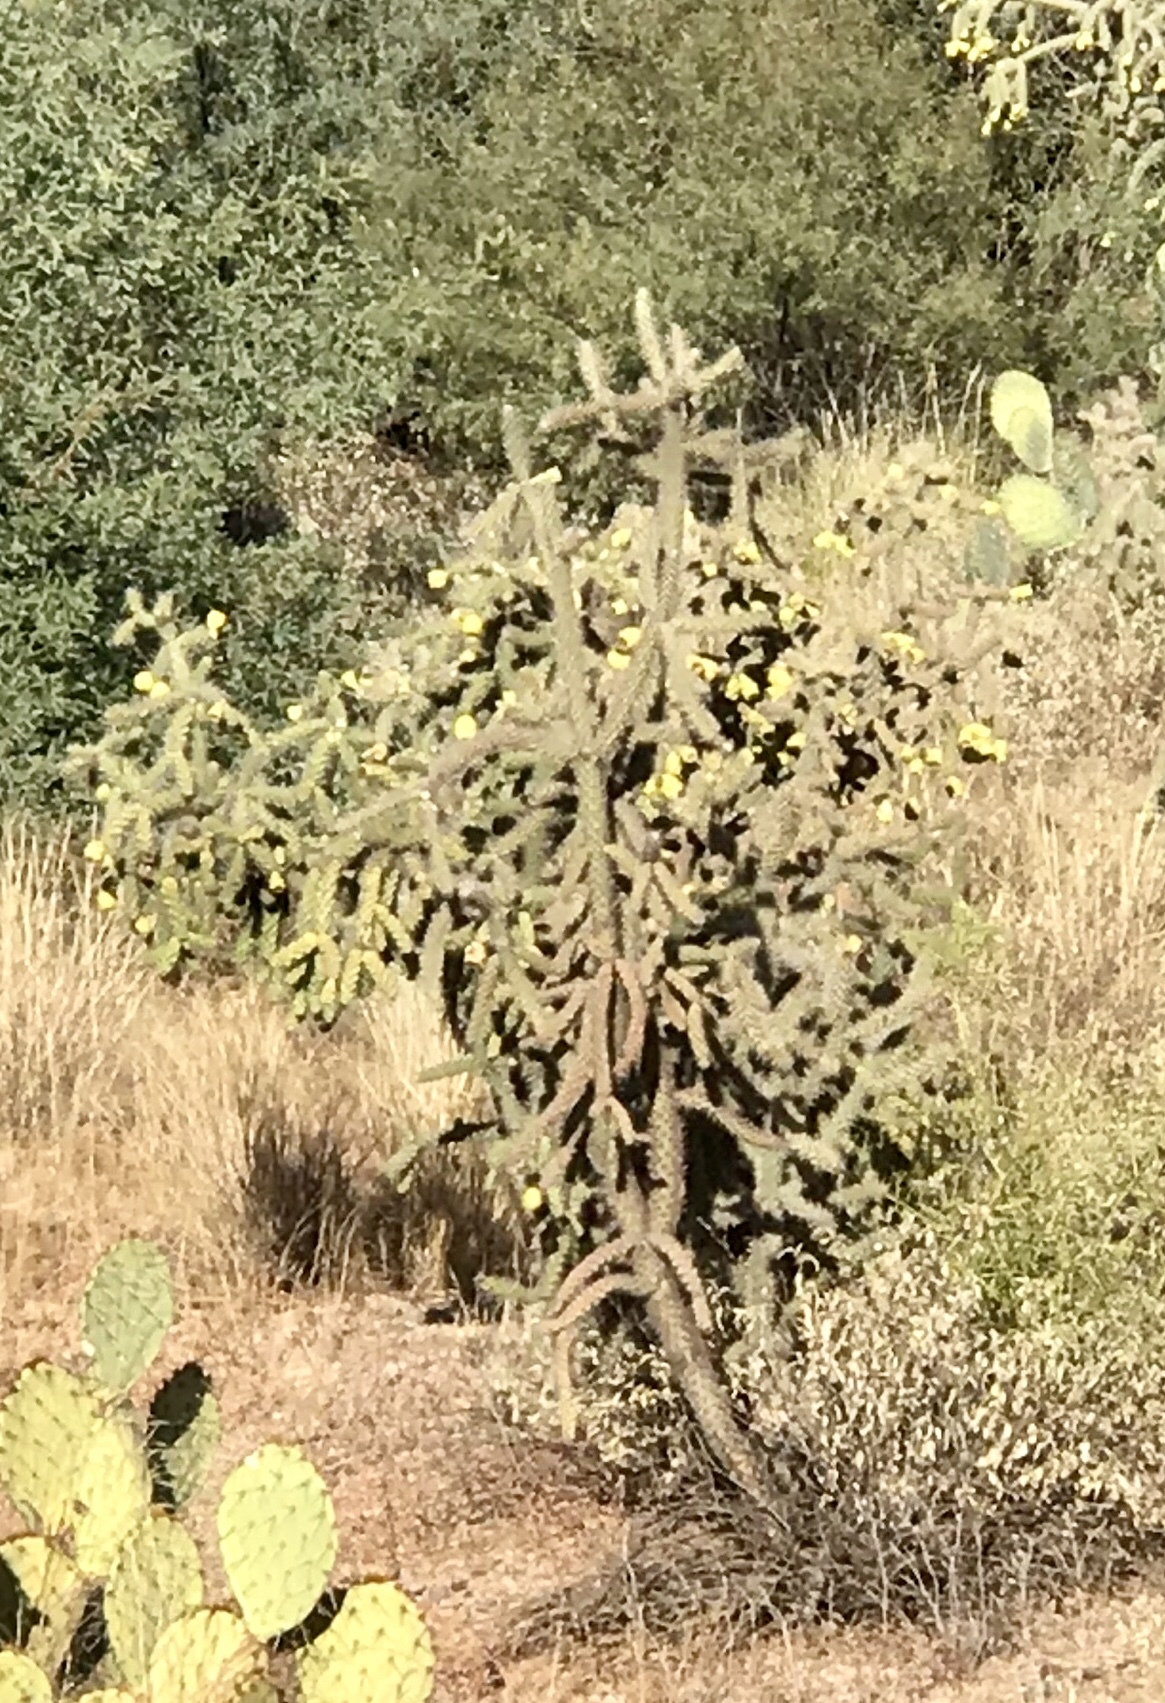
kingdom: Plantae
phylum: Tracheophyta
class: Magnoliopsida
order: Caryophyllales
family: Cactaceae
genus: Cylindropuntia
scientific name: Cylindropuntia imbricata
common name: Candelabrum cactus
